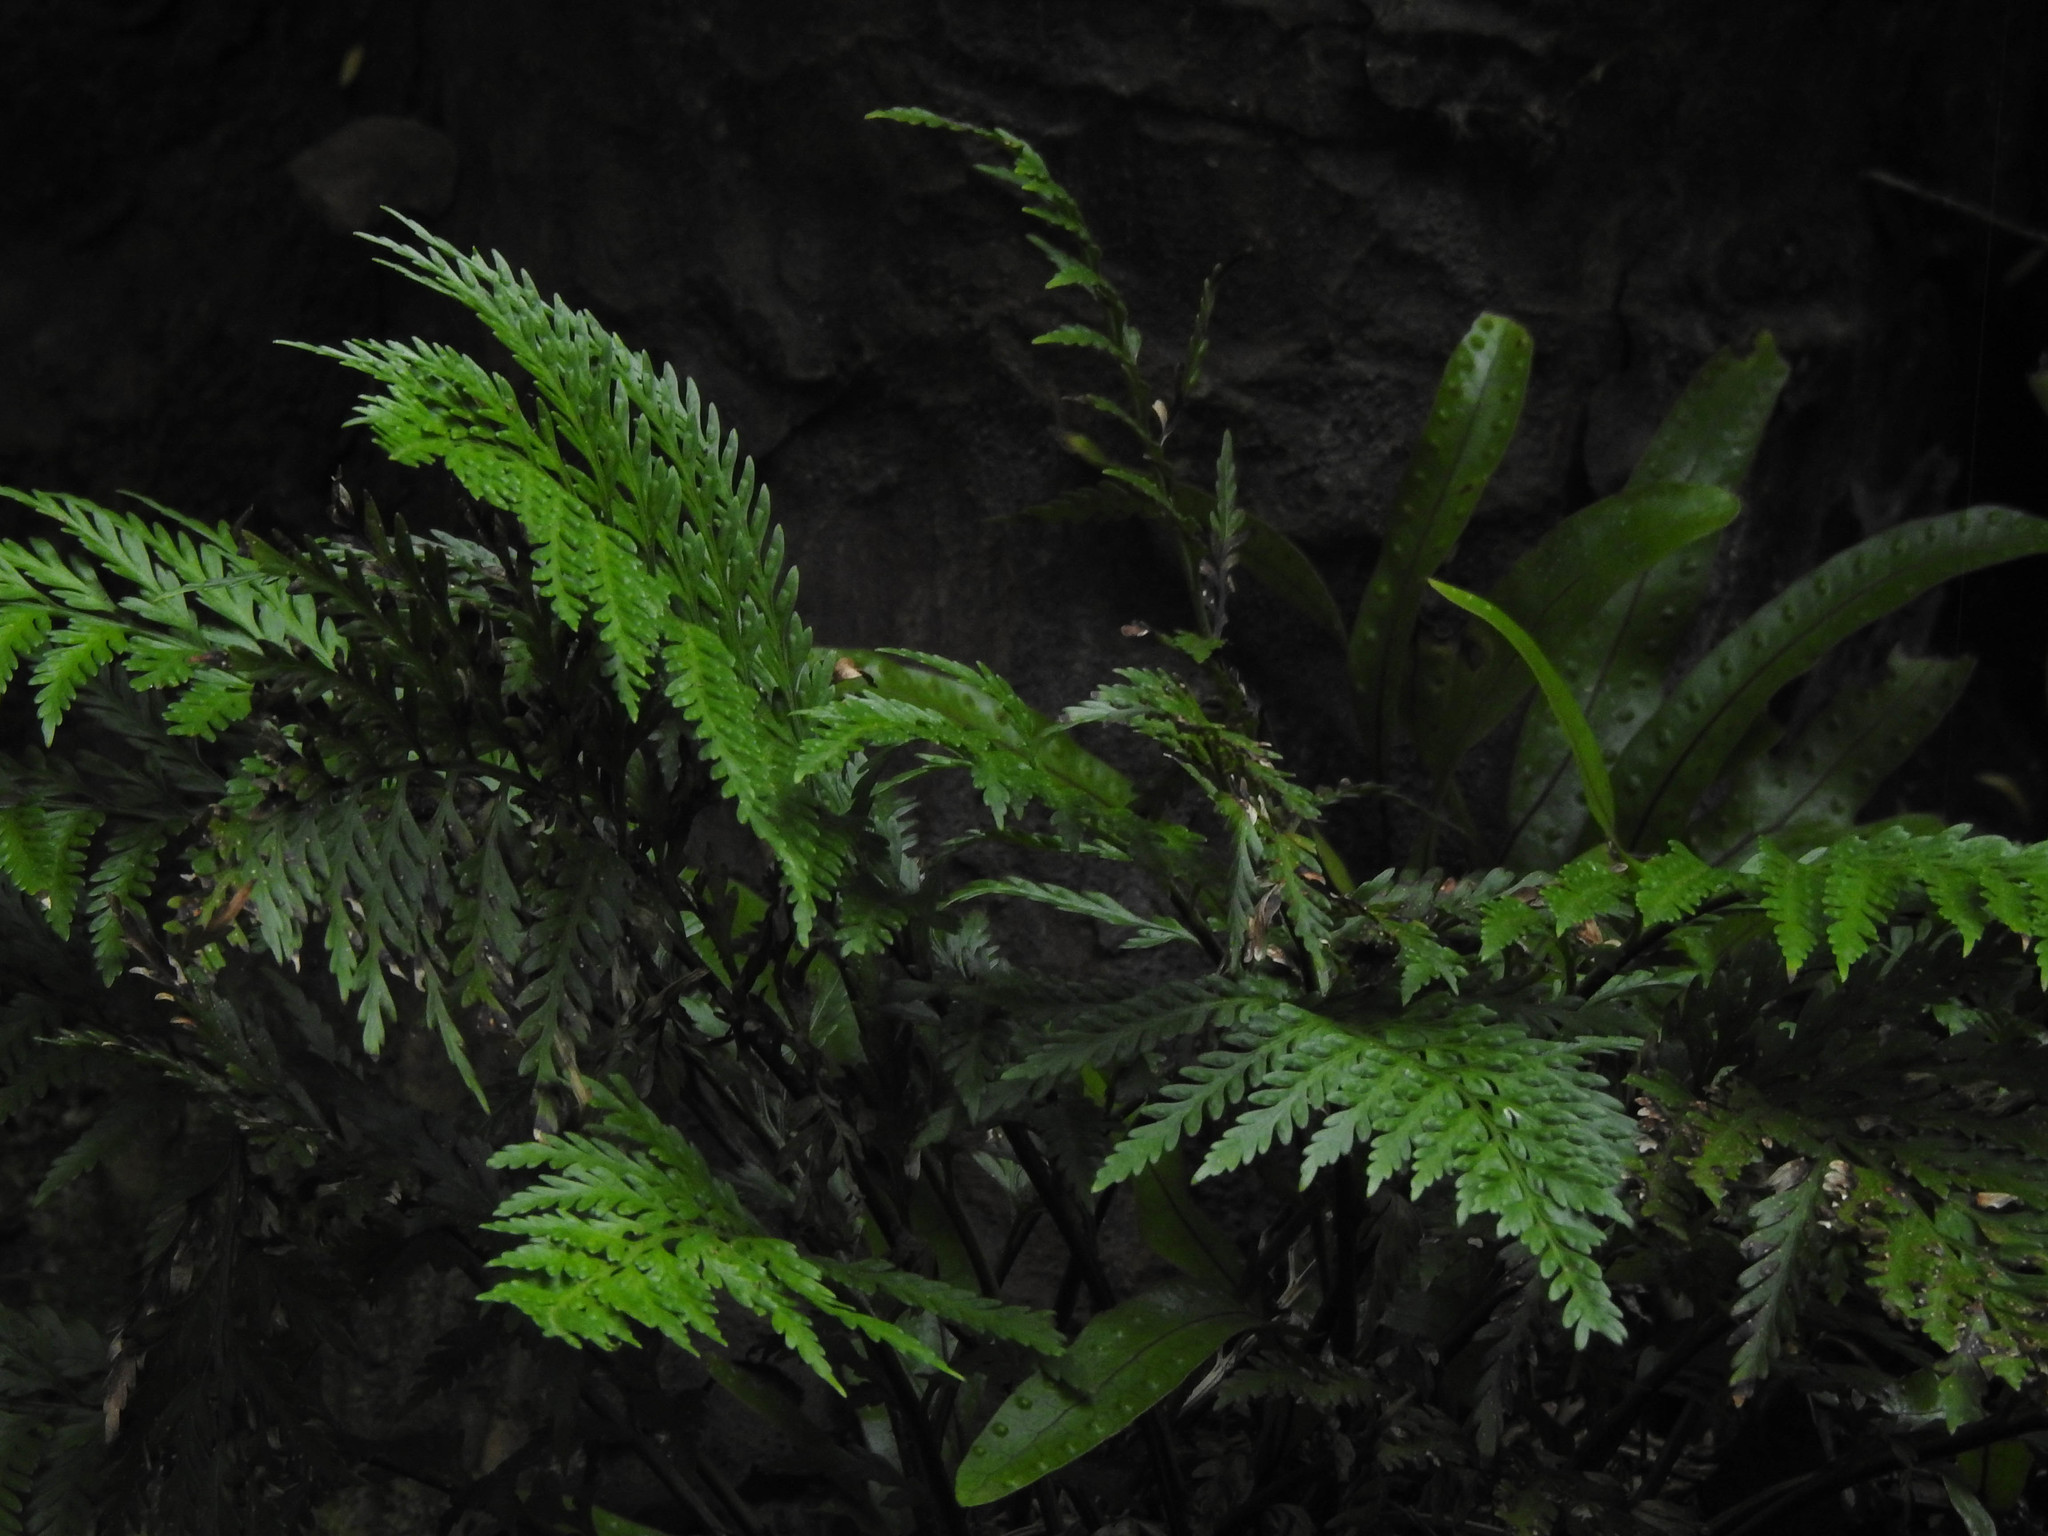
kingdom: Plantae
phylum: Tracheophyta
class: Polypodiopsida
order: Polypodiales
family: Aspleniaceae
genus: Asplenium
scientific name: Asplenium appendiculatum
